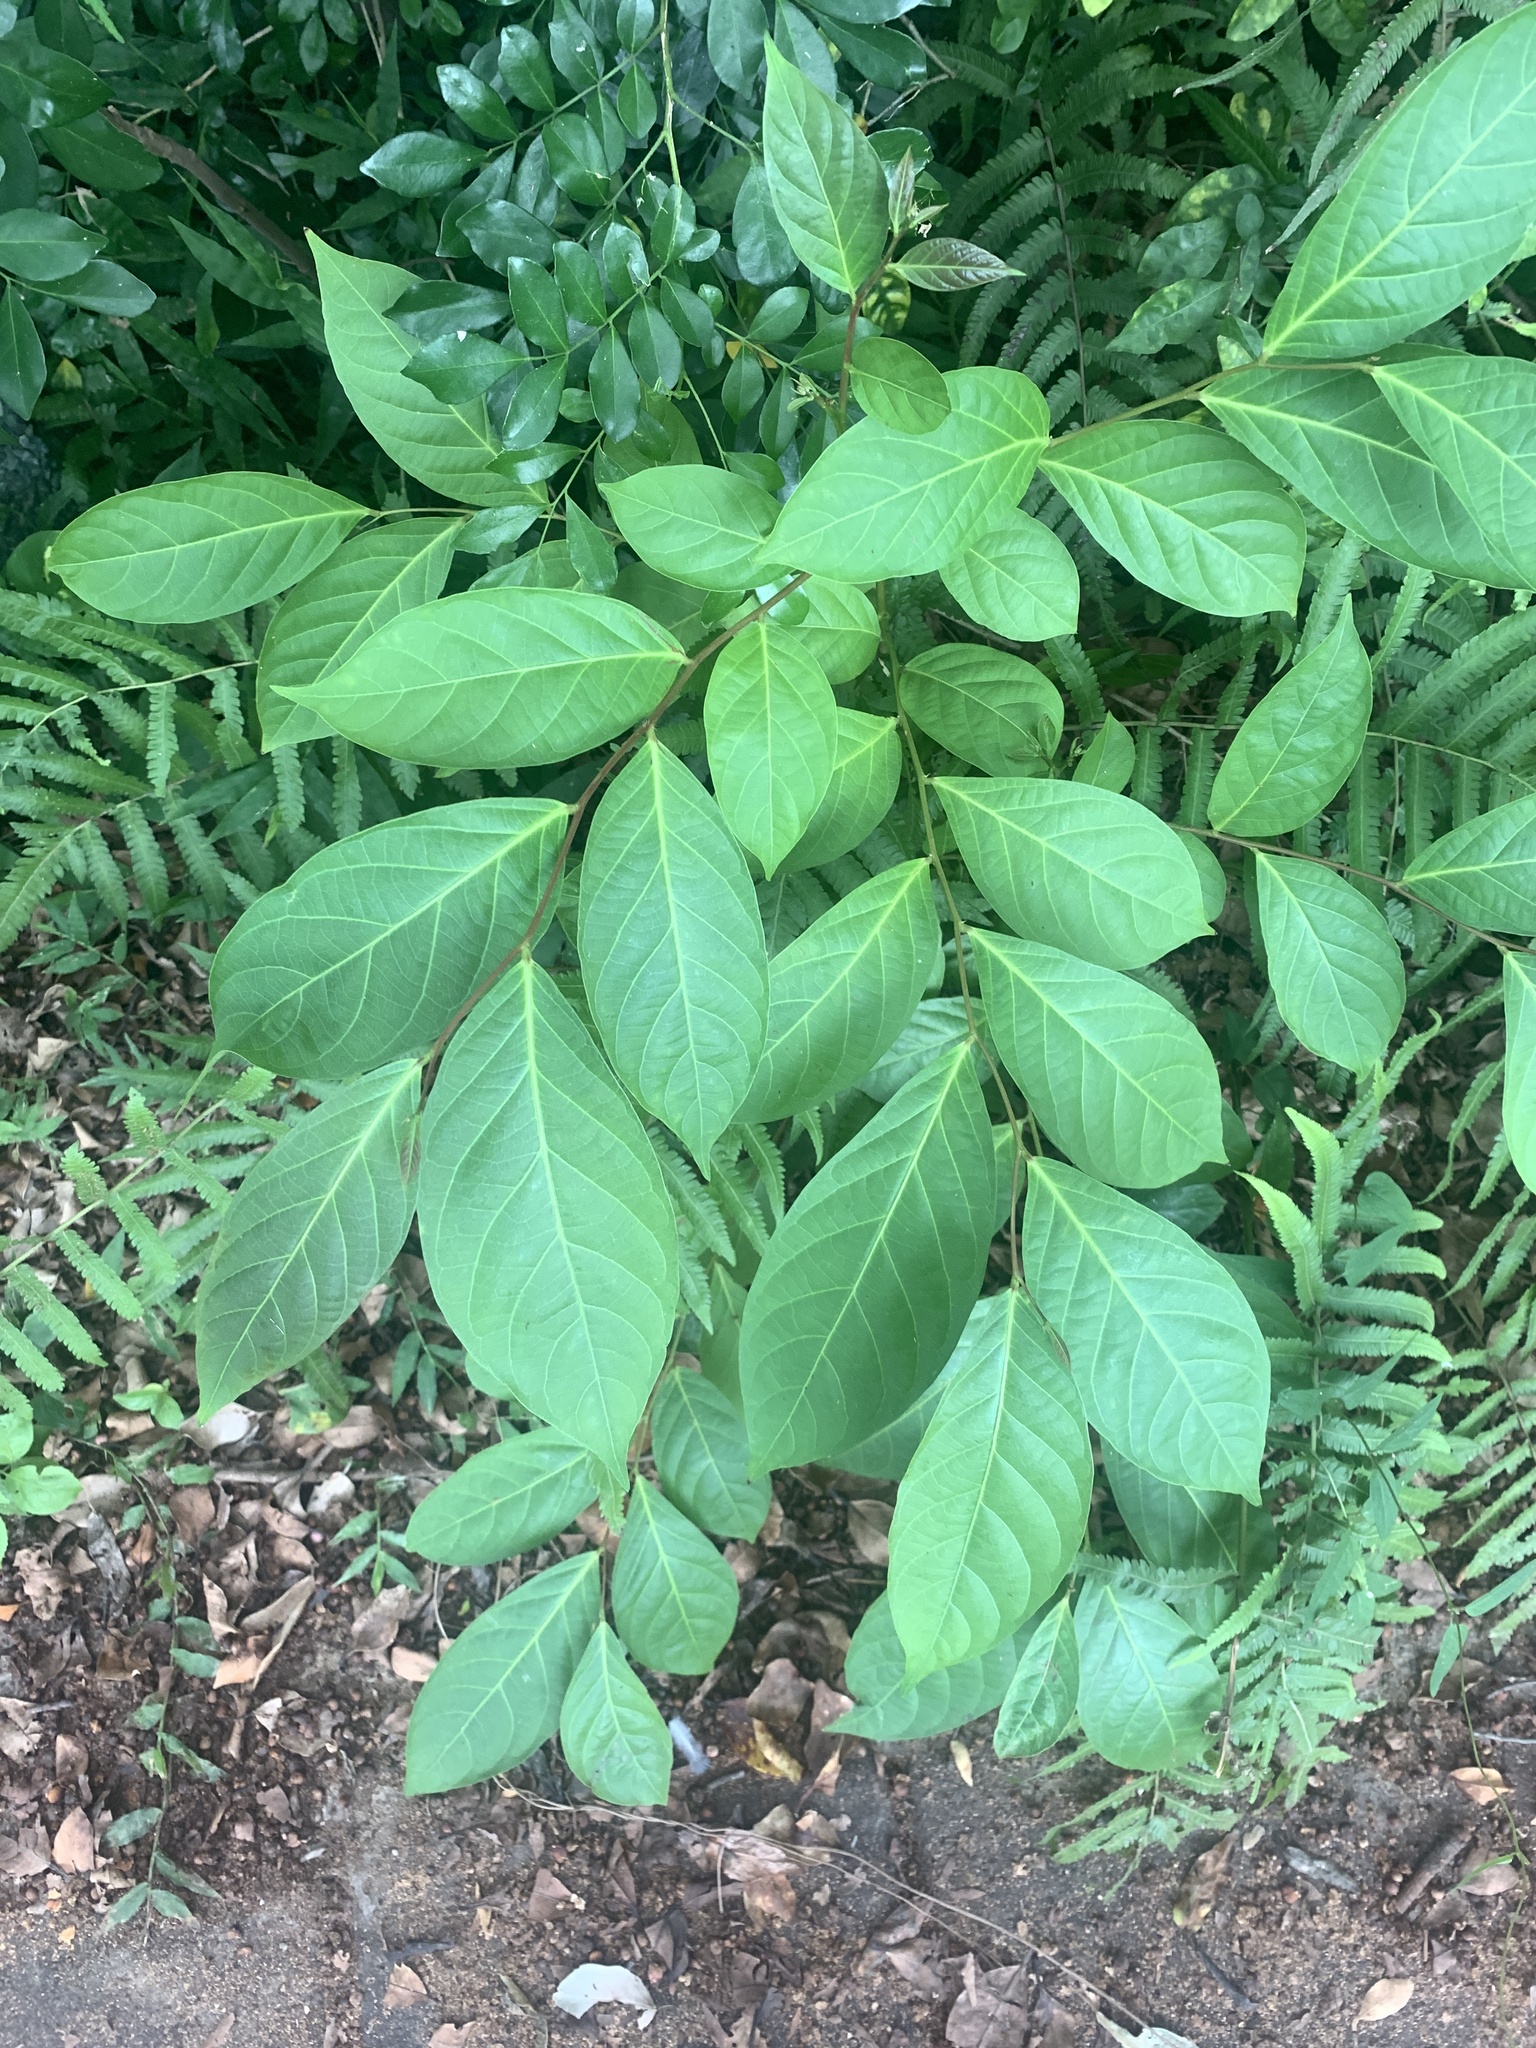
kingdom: Plantae
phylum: Tracheophyta
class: Magnoliopsida
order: Malpighiales
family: Phyllanthaceae
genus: Glochidion
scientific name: Glochidion zeylanicum
